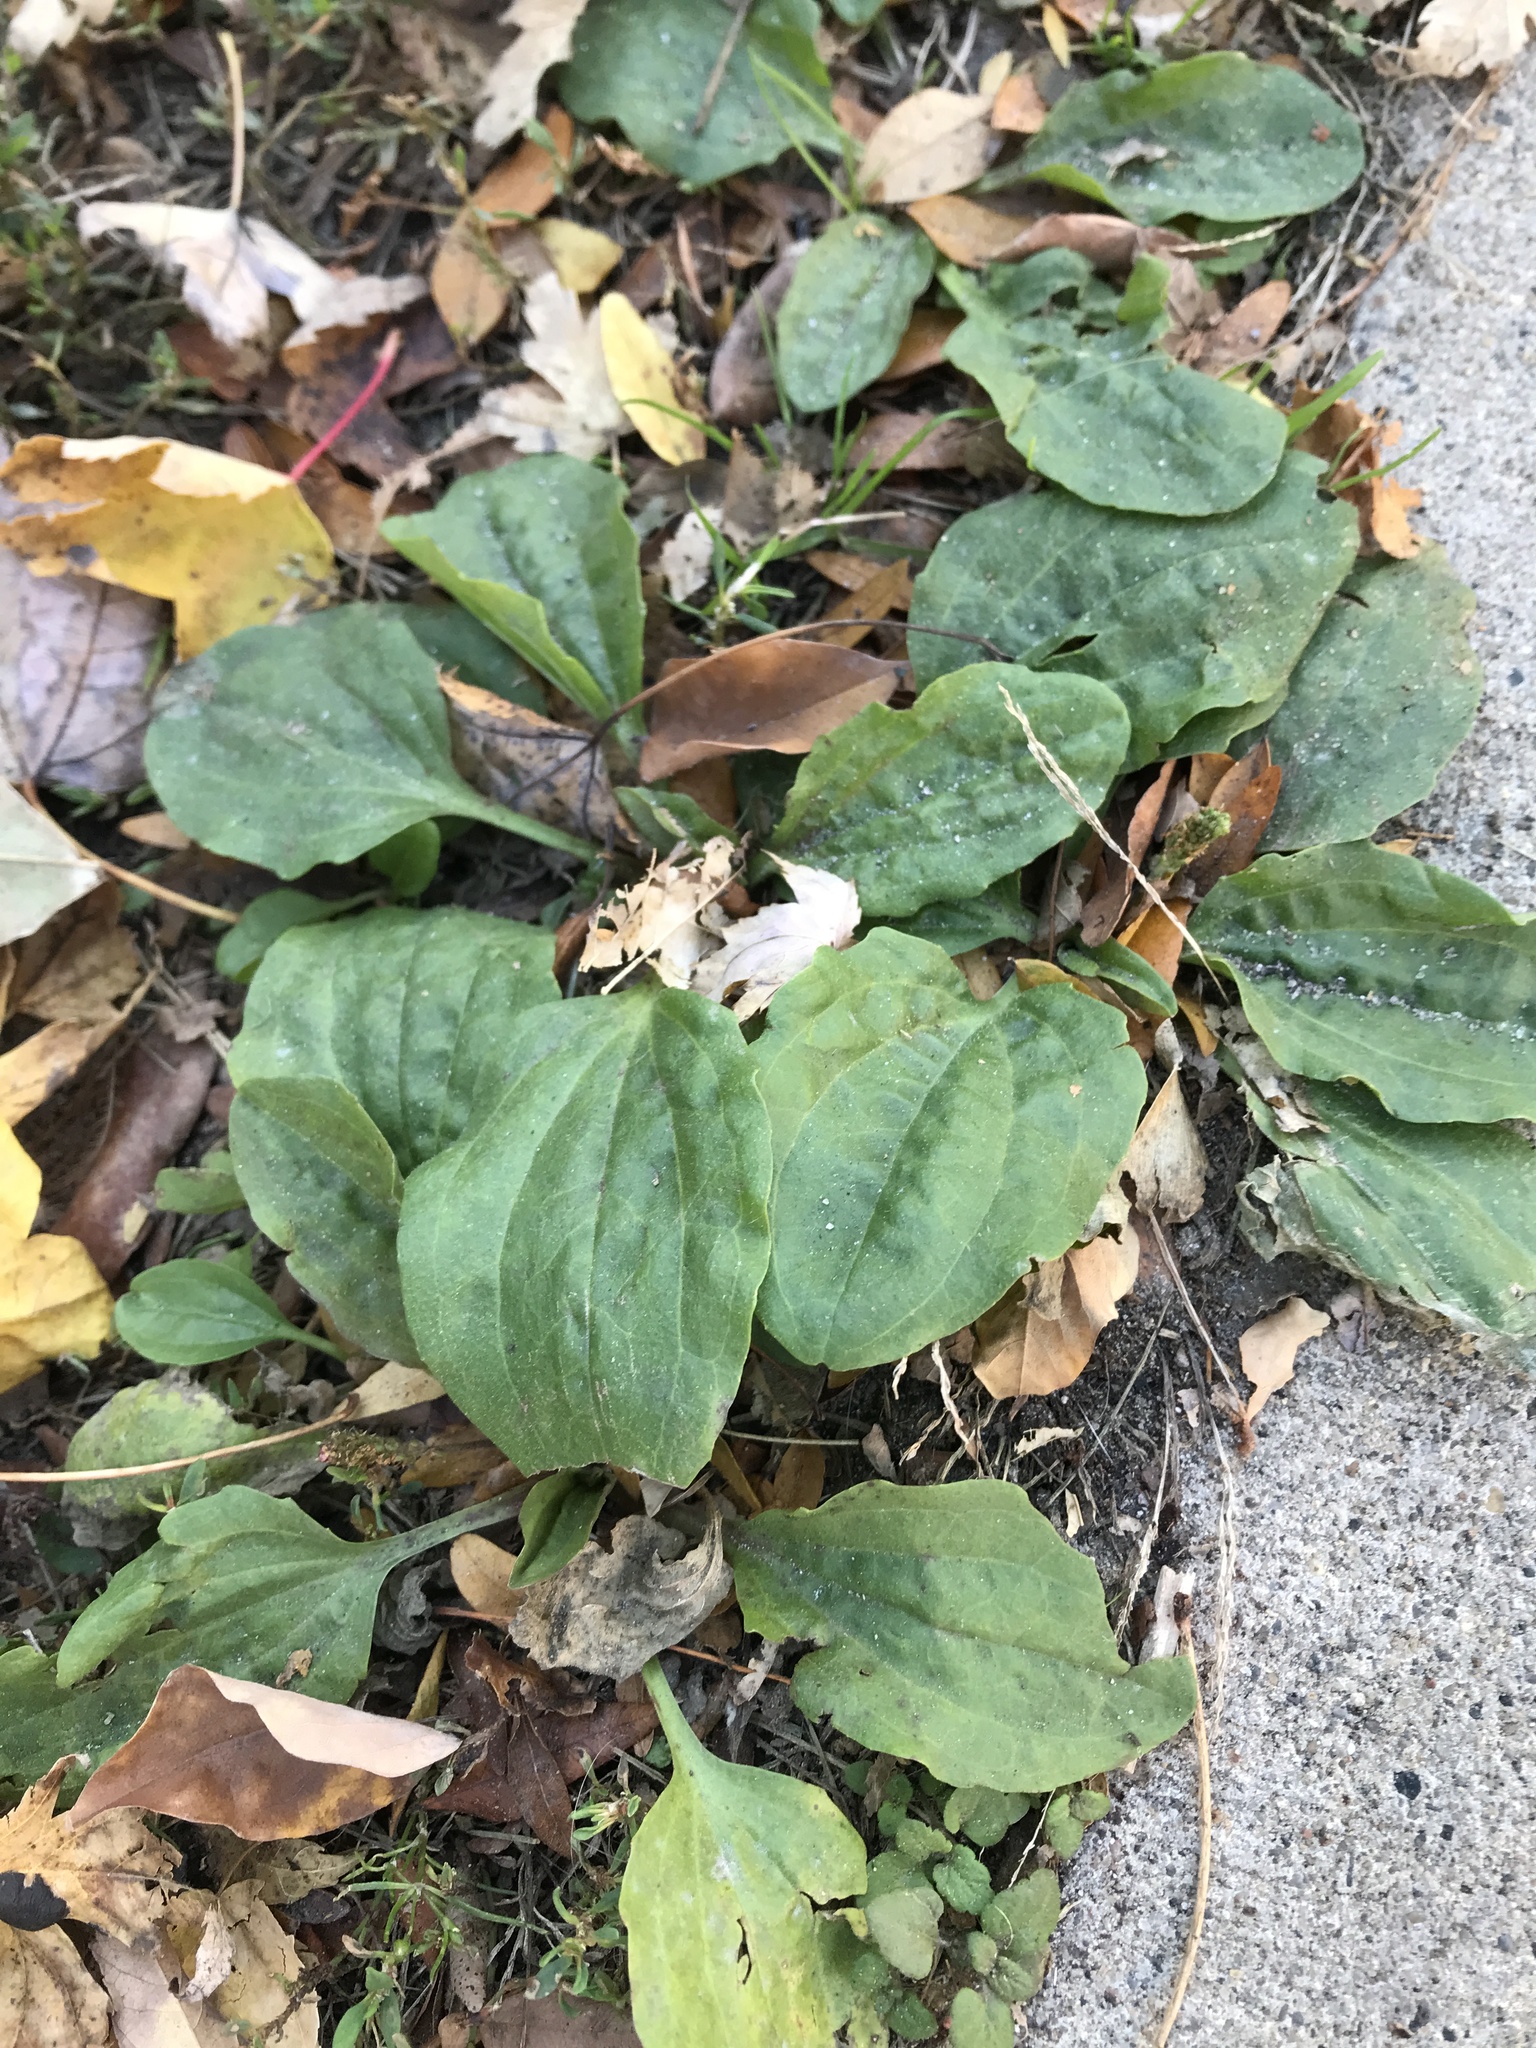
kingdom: Plantae
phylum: Tracheophyta
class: Magnoliopsida
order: Lamiales
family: Plantaginaceae
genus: Plantago
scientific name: Plantago major
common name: Common plantain
